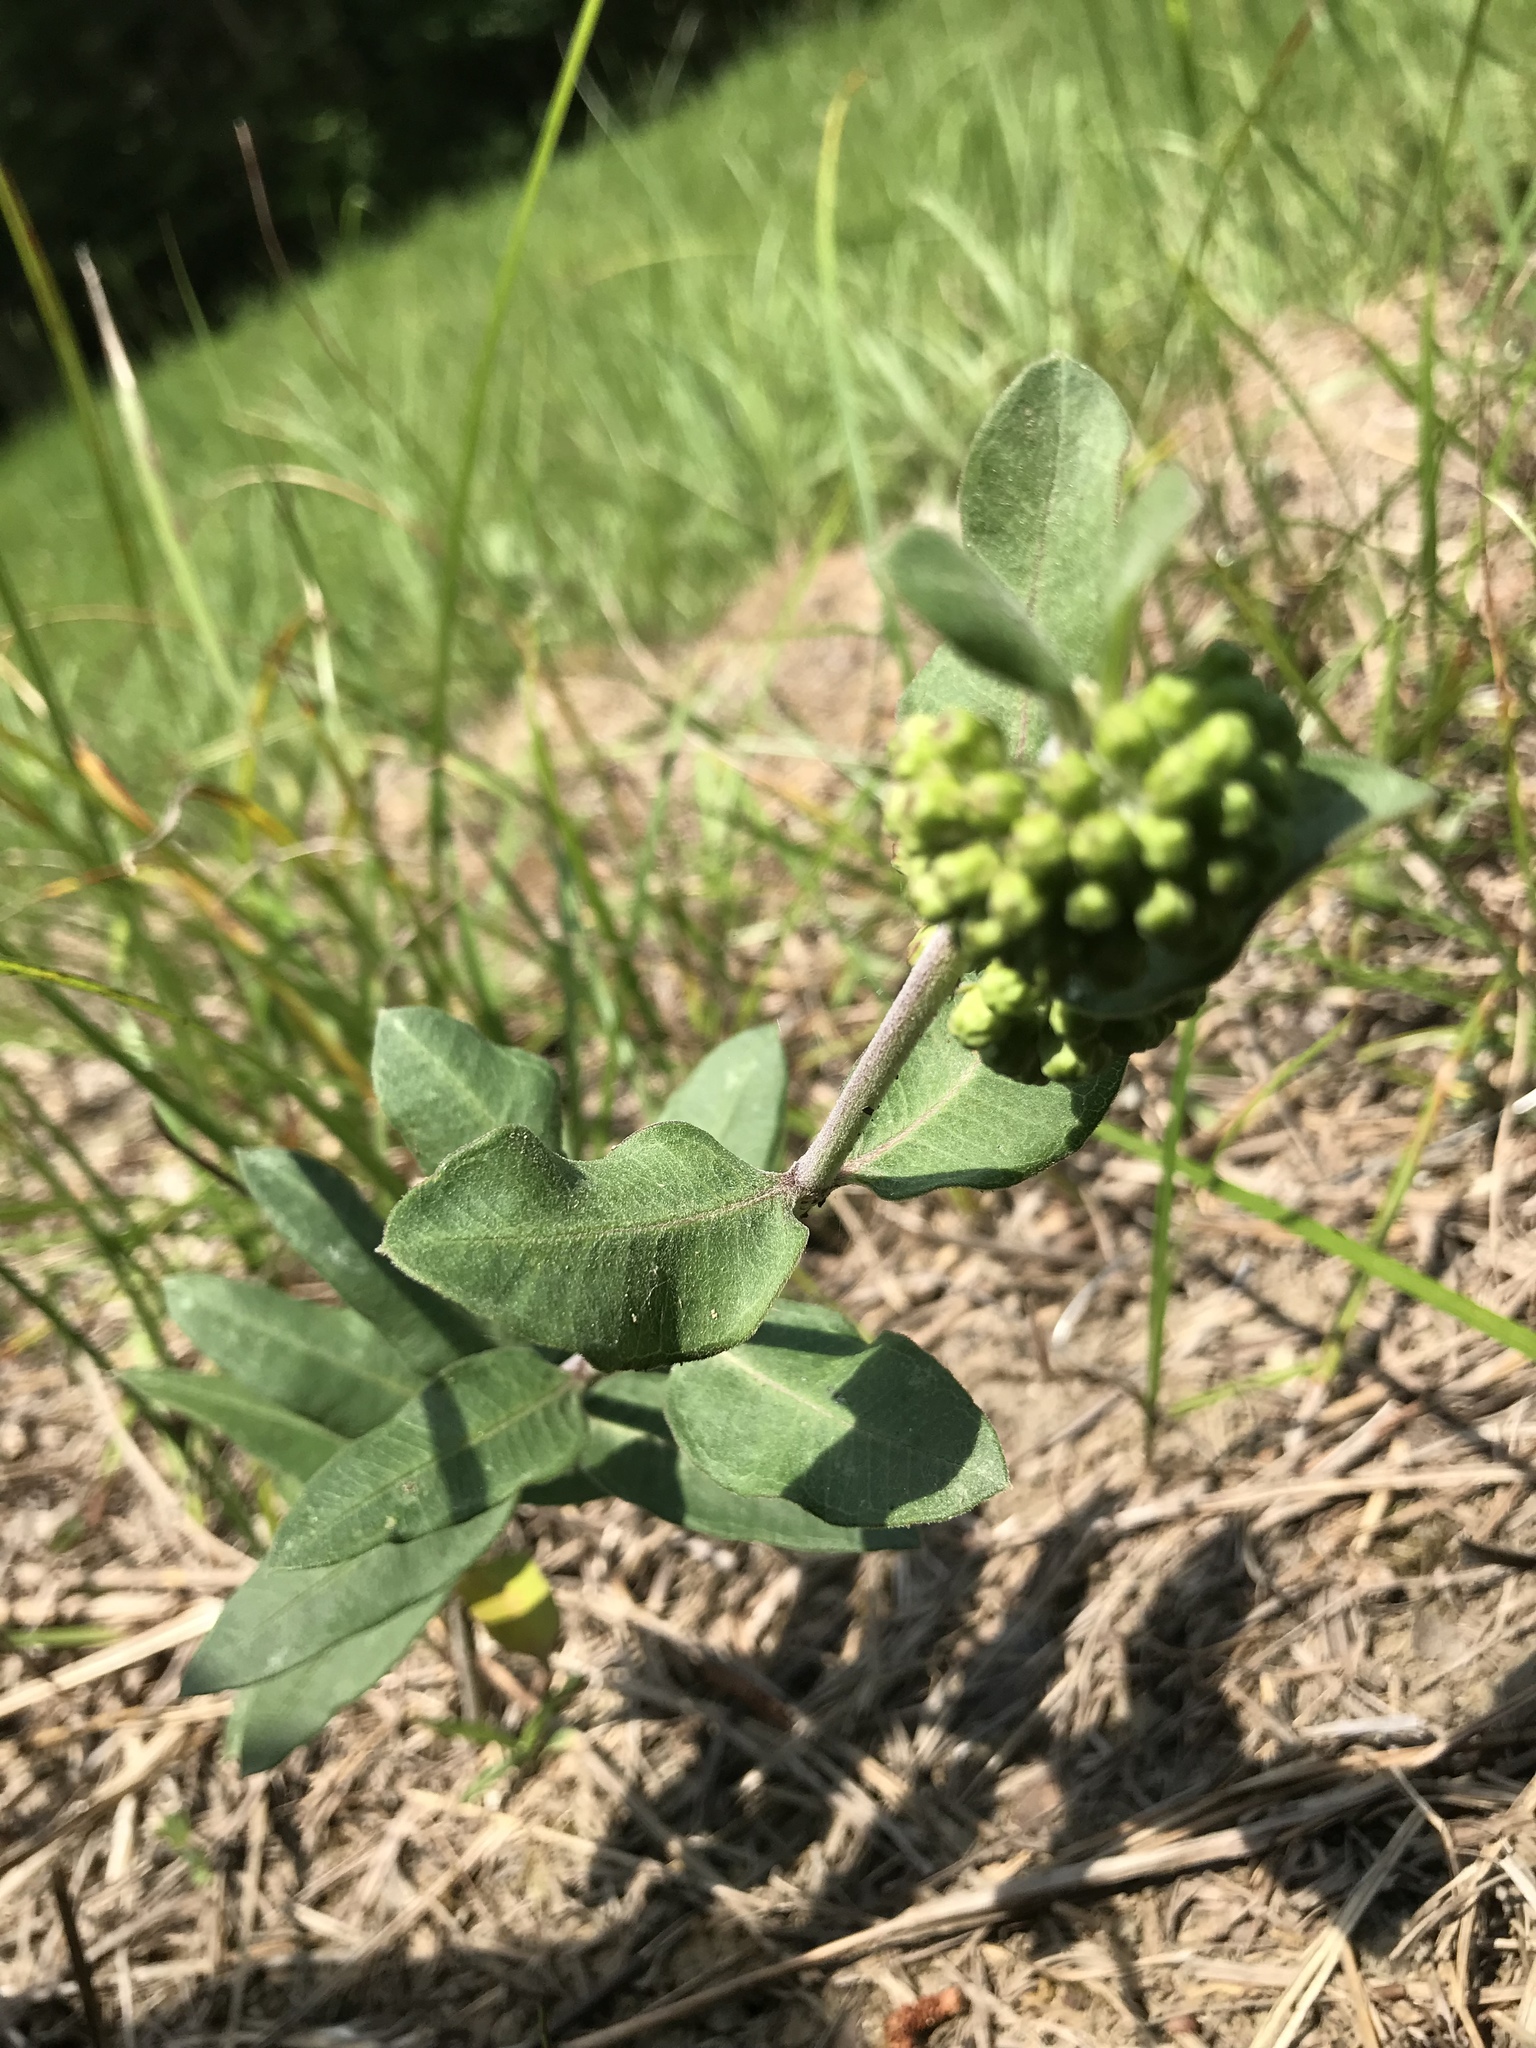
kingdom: Plantae
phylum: Tracheophyta
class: Magnoliopsida
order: Gentianales
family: Apocynaceae
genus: Asclepias
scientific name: Asclepias viridiflora
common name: Green comet milkweed
